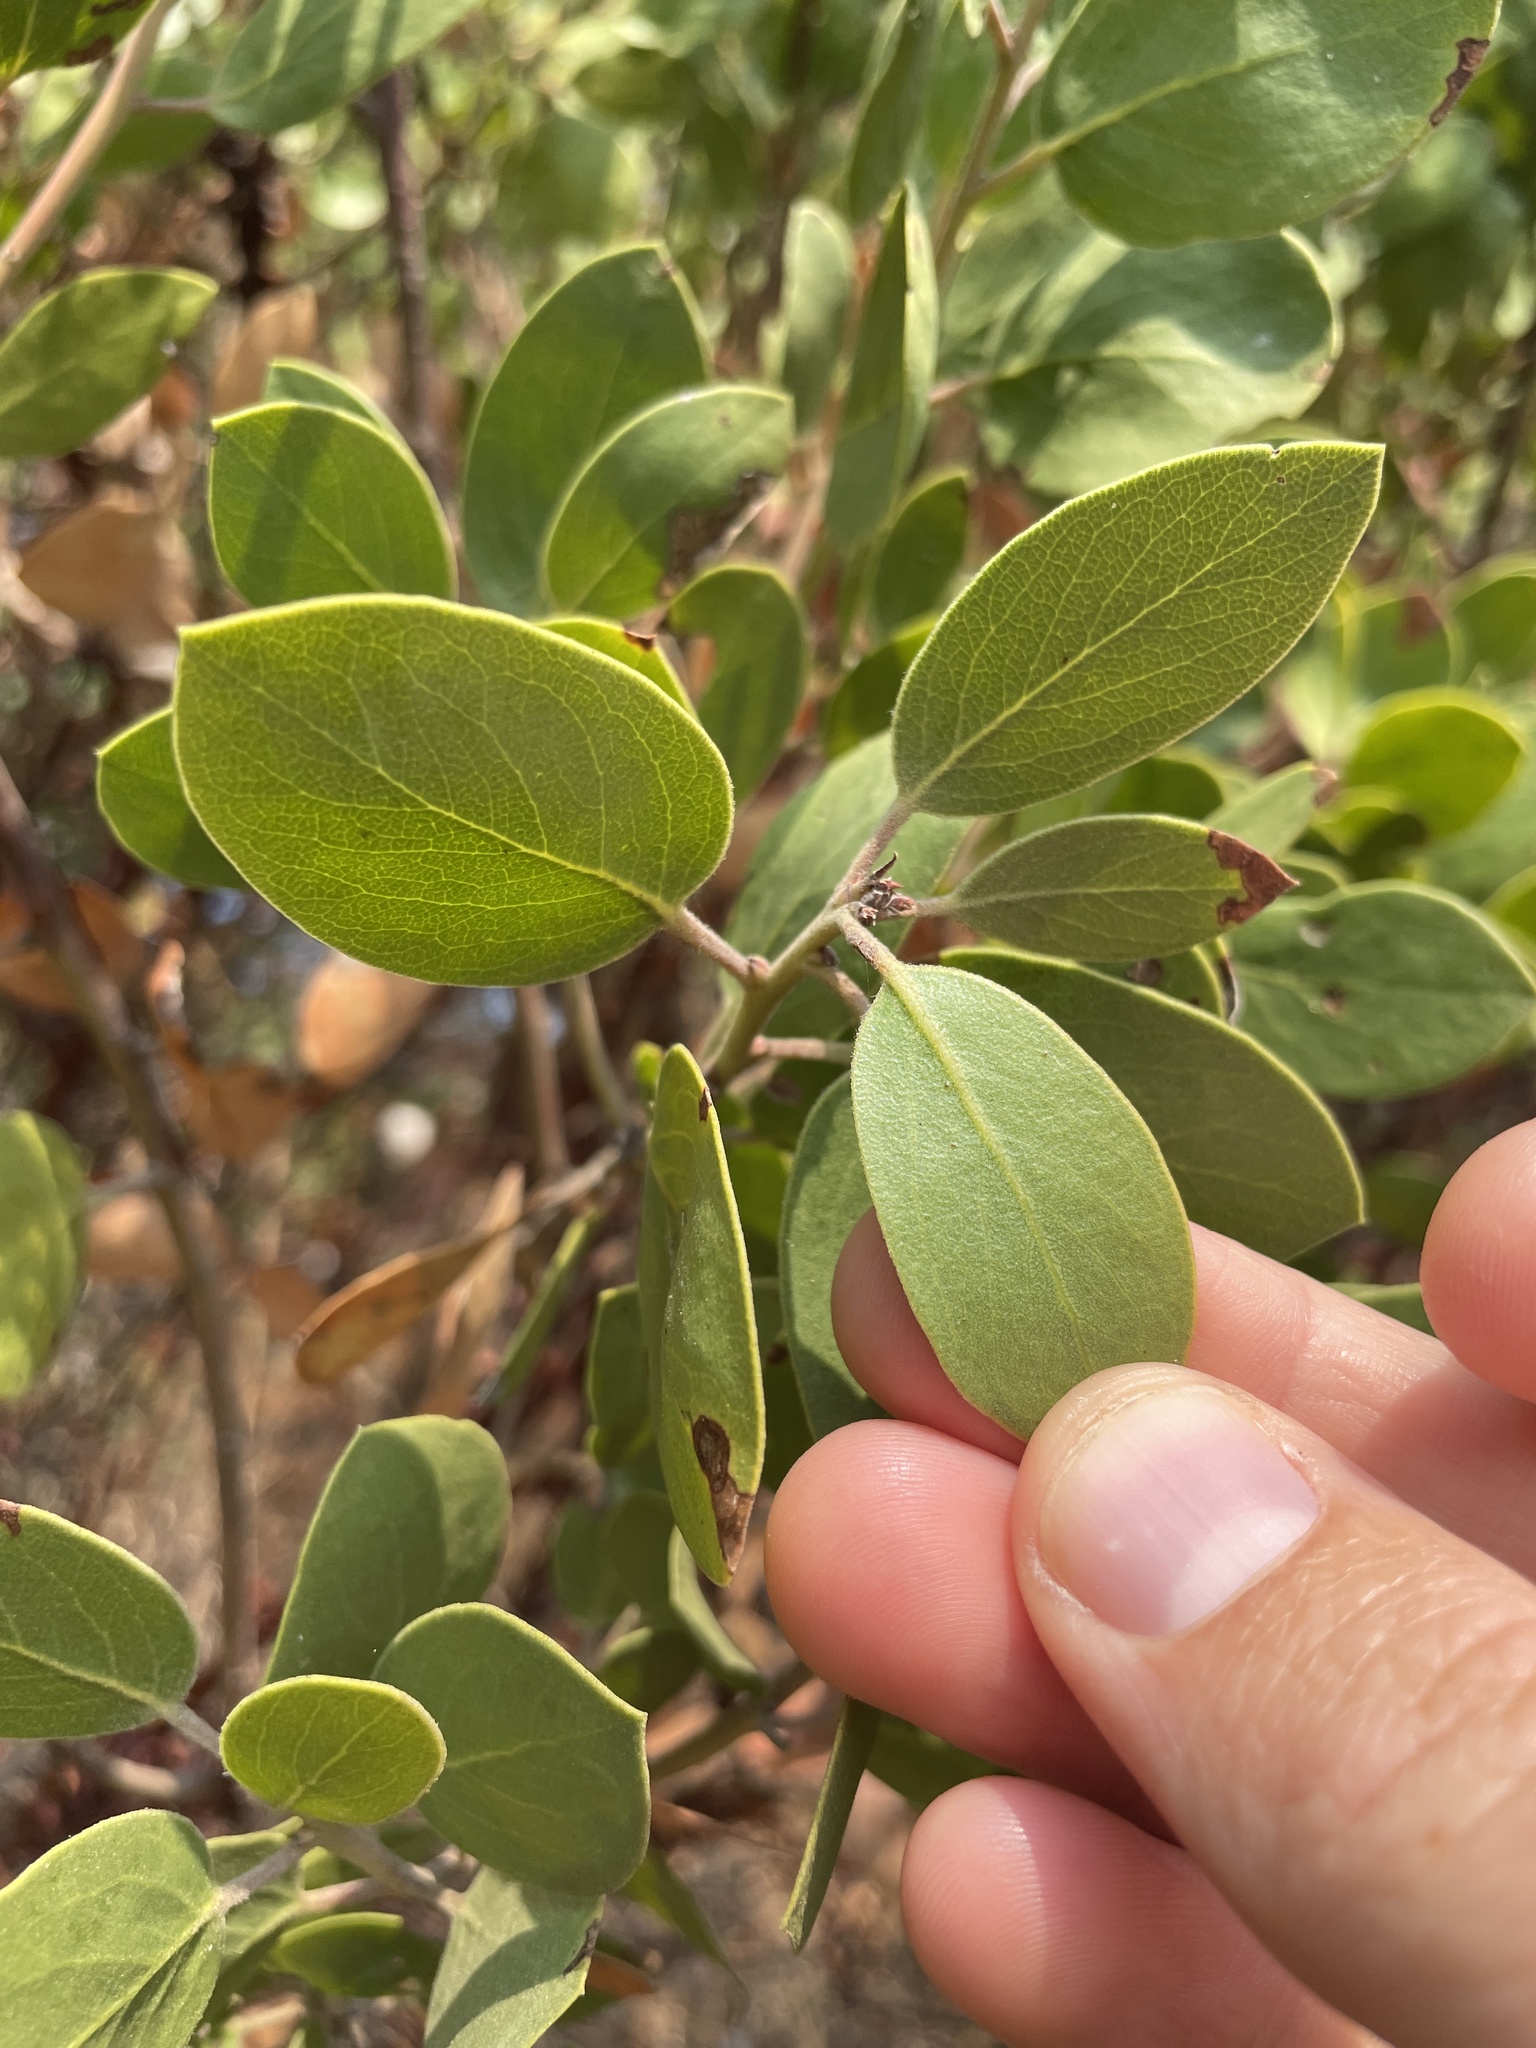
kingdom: Plantae
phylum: Tracheophyta
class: Magnoliopsida
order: Ericales
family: Ericaceae
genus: Arctostaphylos
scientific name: Arctostaphylos manzanita
